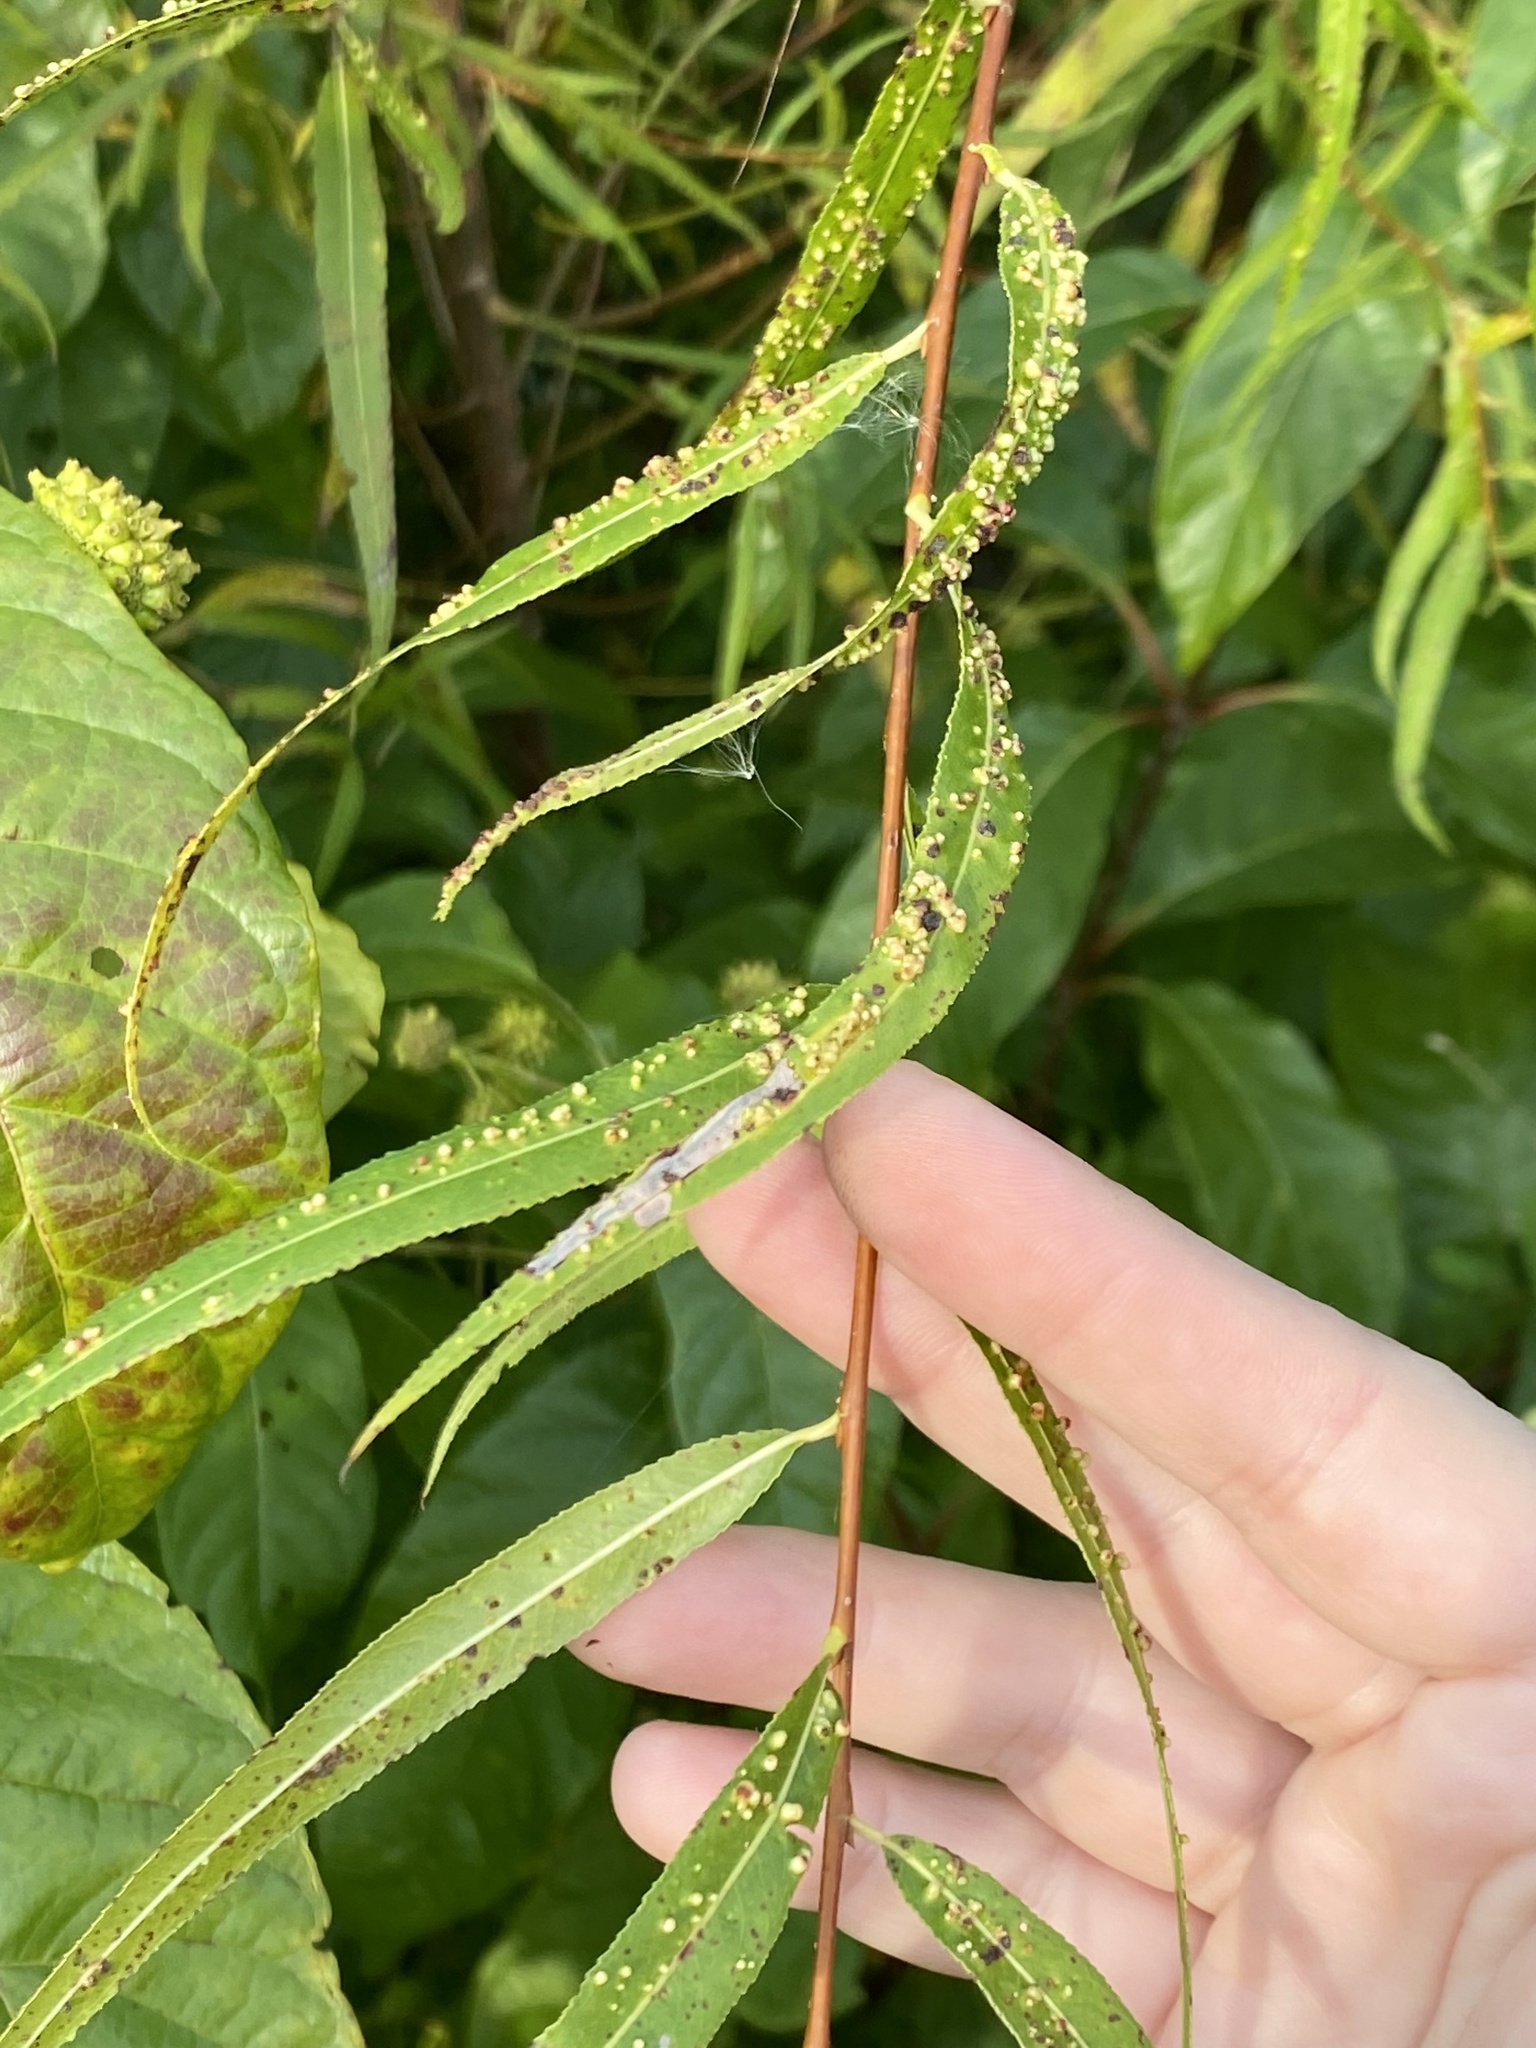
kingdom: Animalia
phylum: Arthropoda
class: Arachnida
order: Trombidiformes
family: Eriophyidae
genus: Aculus
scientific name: Aculus tetanothrix
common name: Willow bead gall mite
